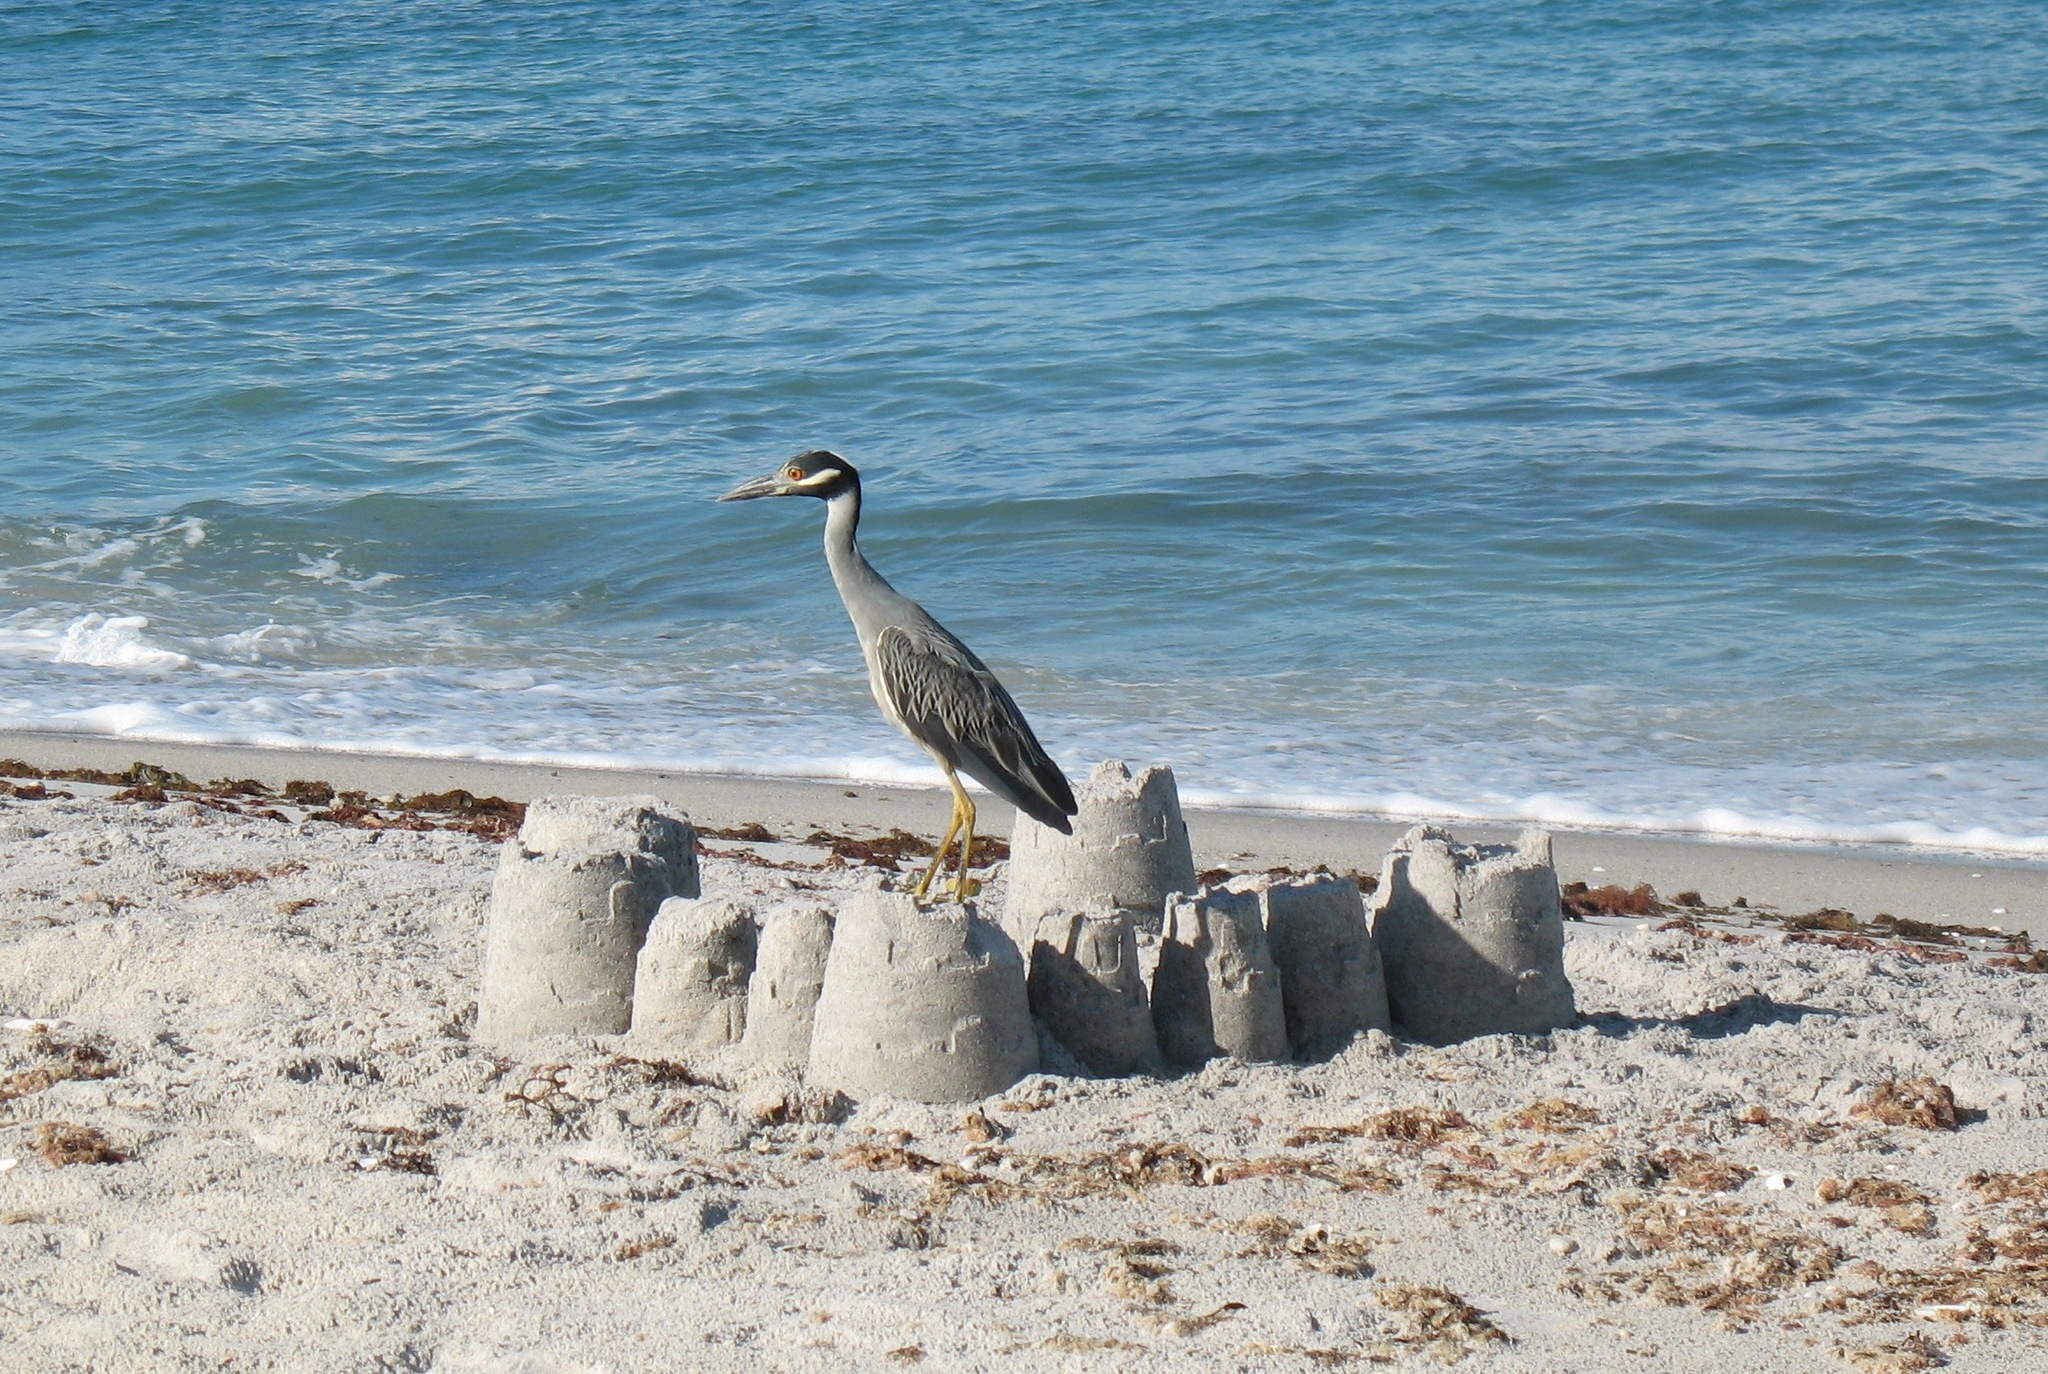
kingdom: Animalia
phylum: Chordata
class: Aves
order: Pelecaniformes
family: Ardeidae
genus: Nyctanassa
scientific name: Nyctanassa violacea
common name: Yellow-crowned night heron
